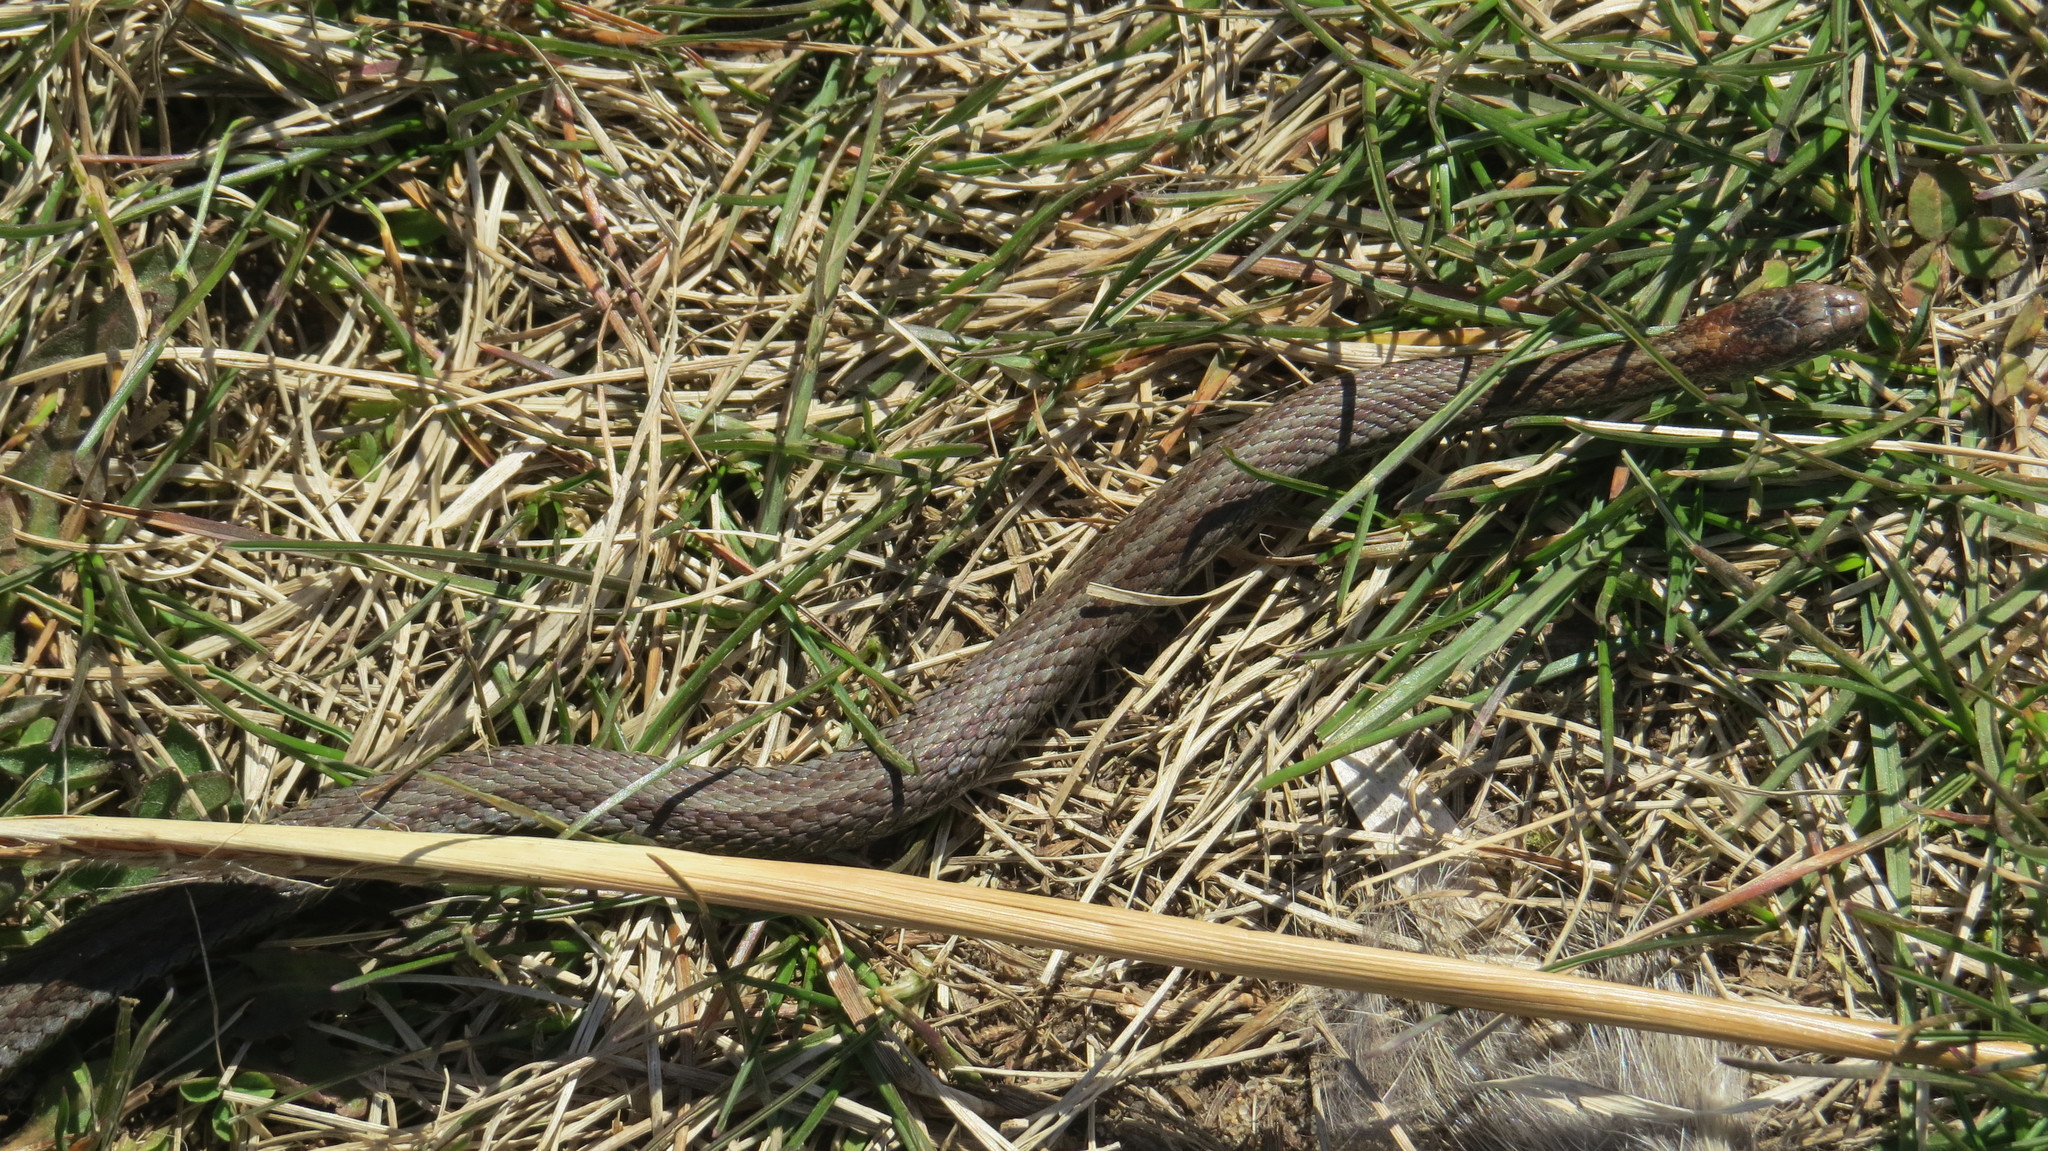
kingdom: Animalia
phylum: Chordata
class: Squamata
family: Colubridae
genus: Storeria
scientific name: Storeria occipitomaculata
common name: Redbelly snake
